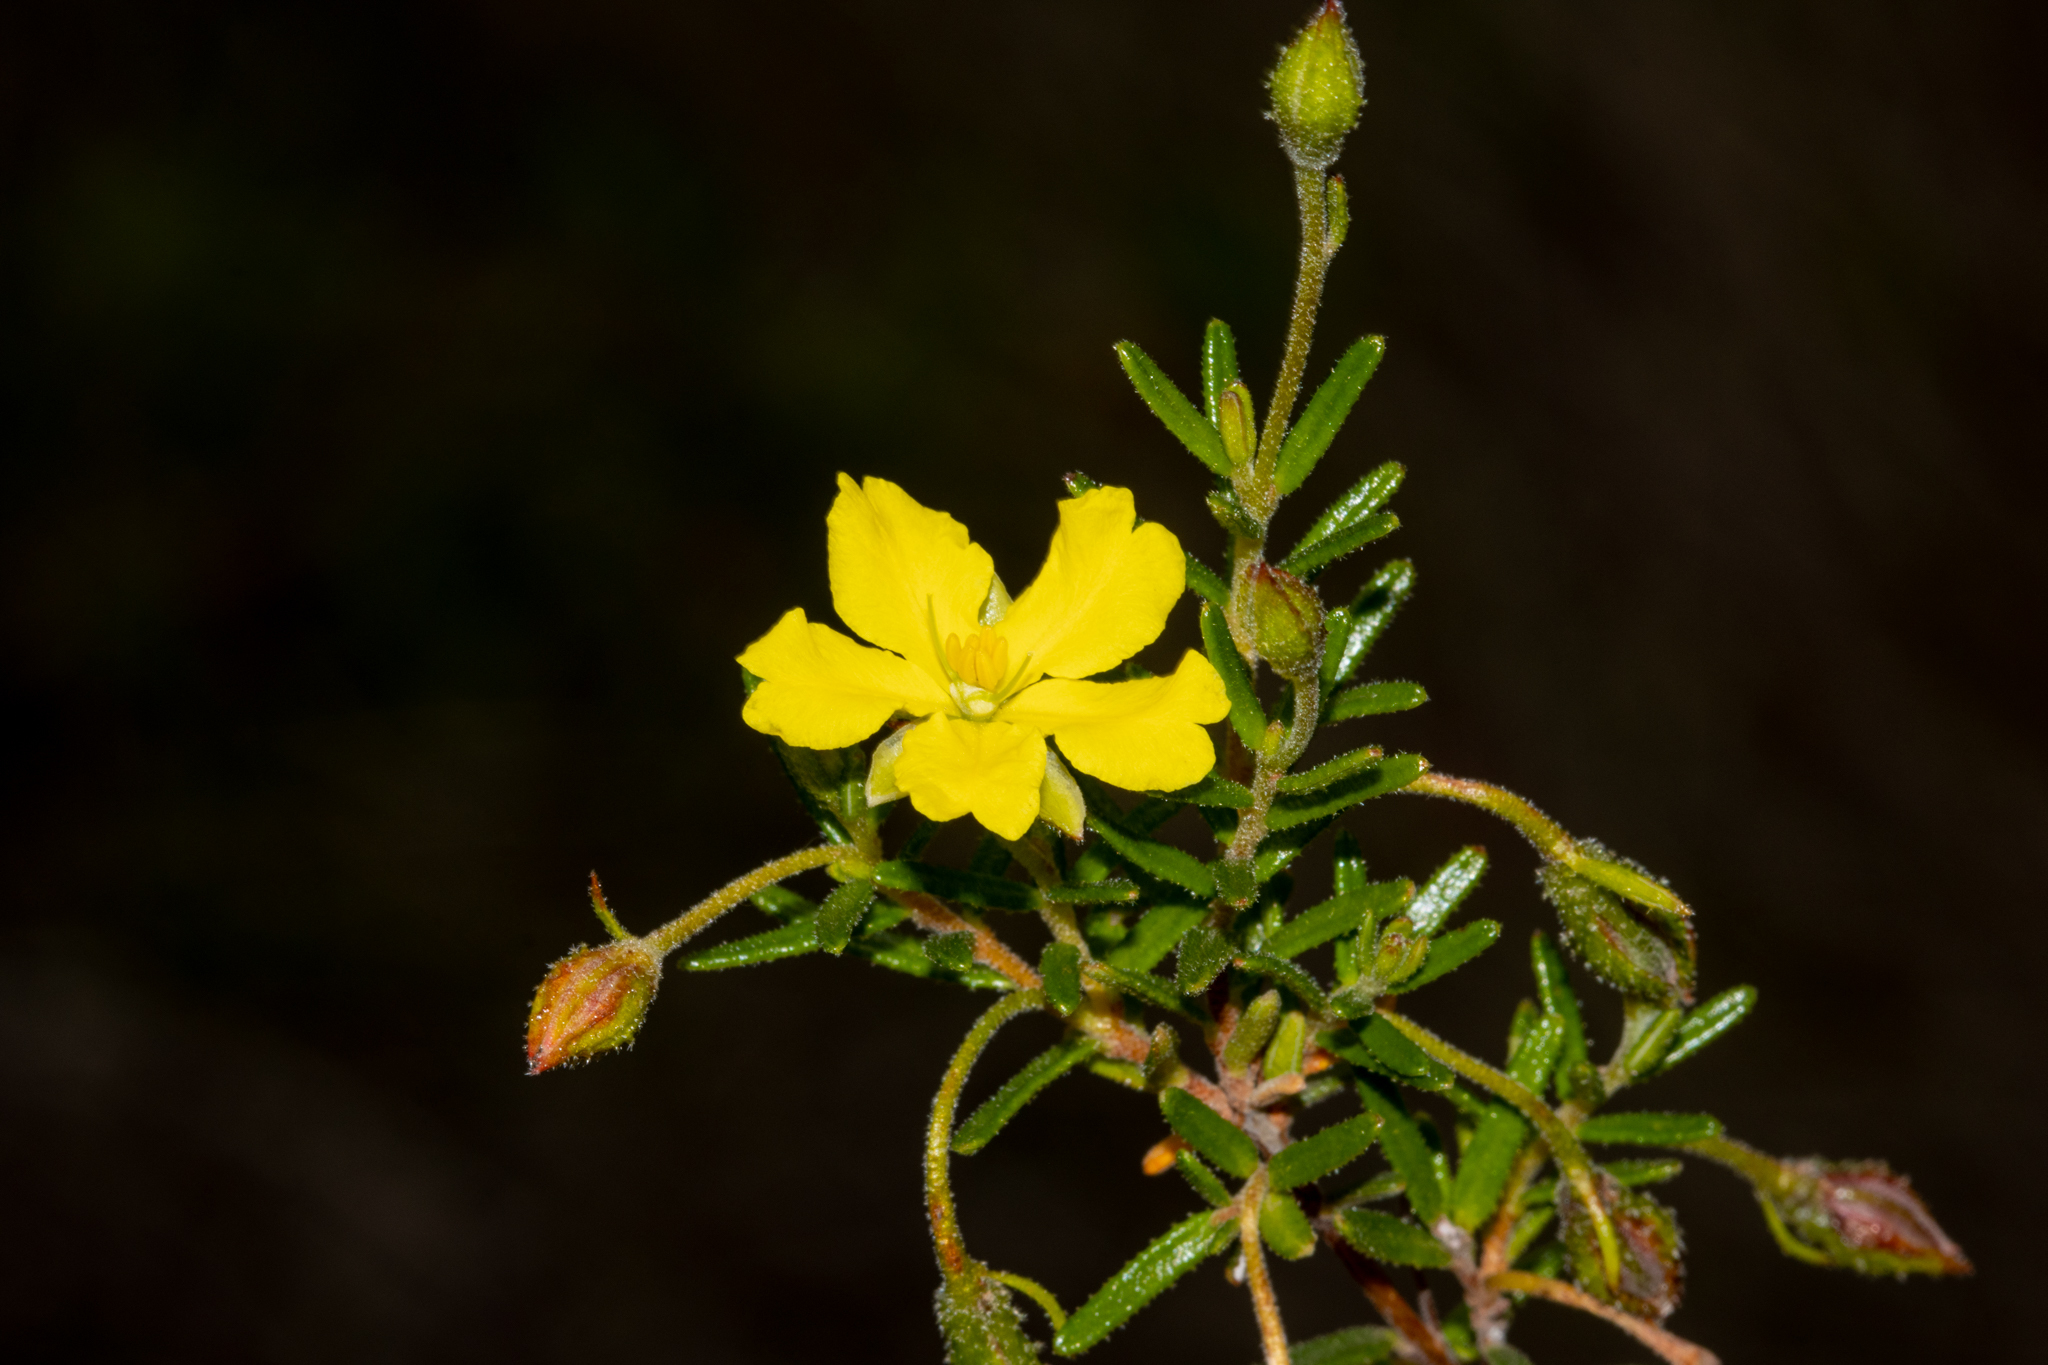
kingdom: Plantae
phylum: Tracheophyta
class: Magnoliopsida
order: Dilleniales
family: Dilleniaceae
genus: Hibbertia
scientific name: Hibbertia glebosa
